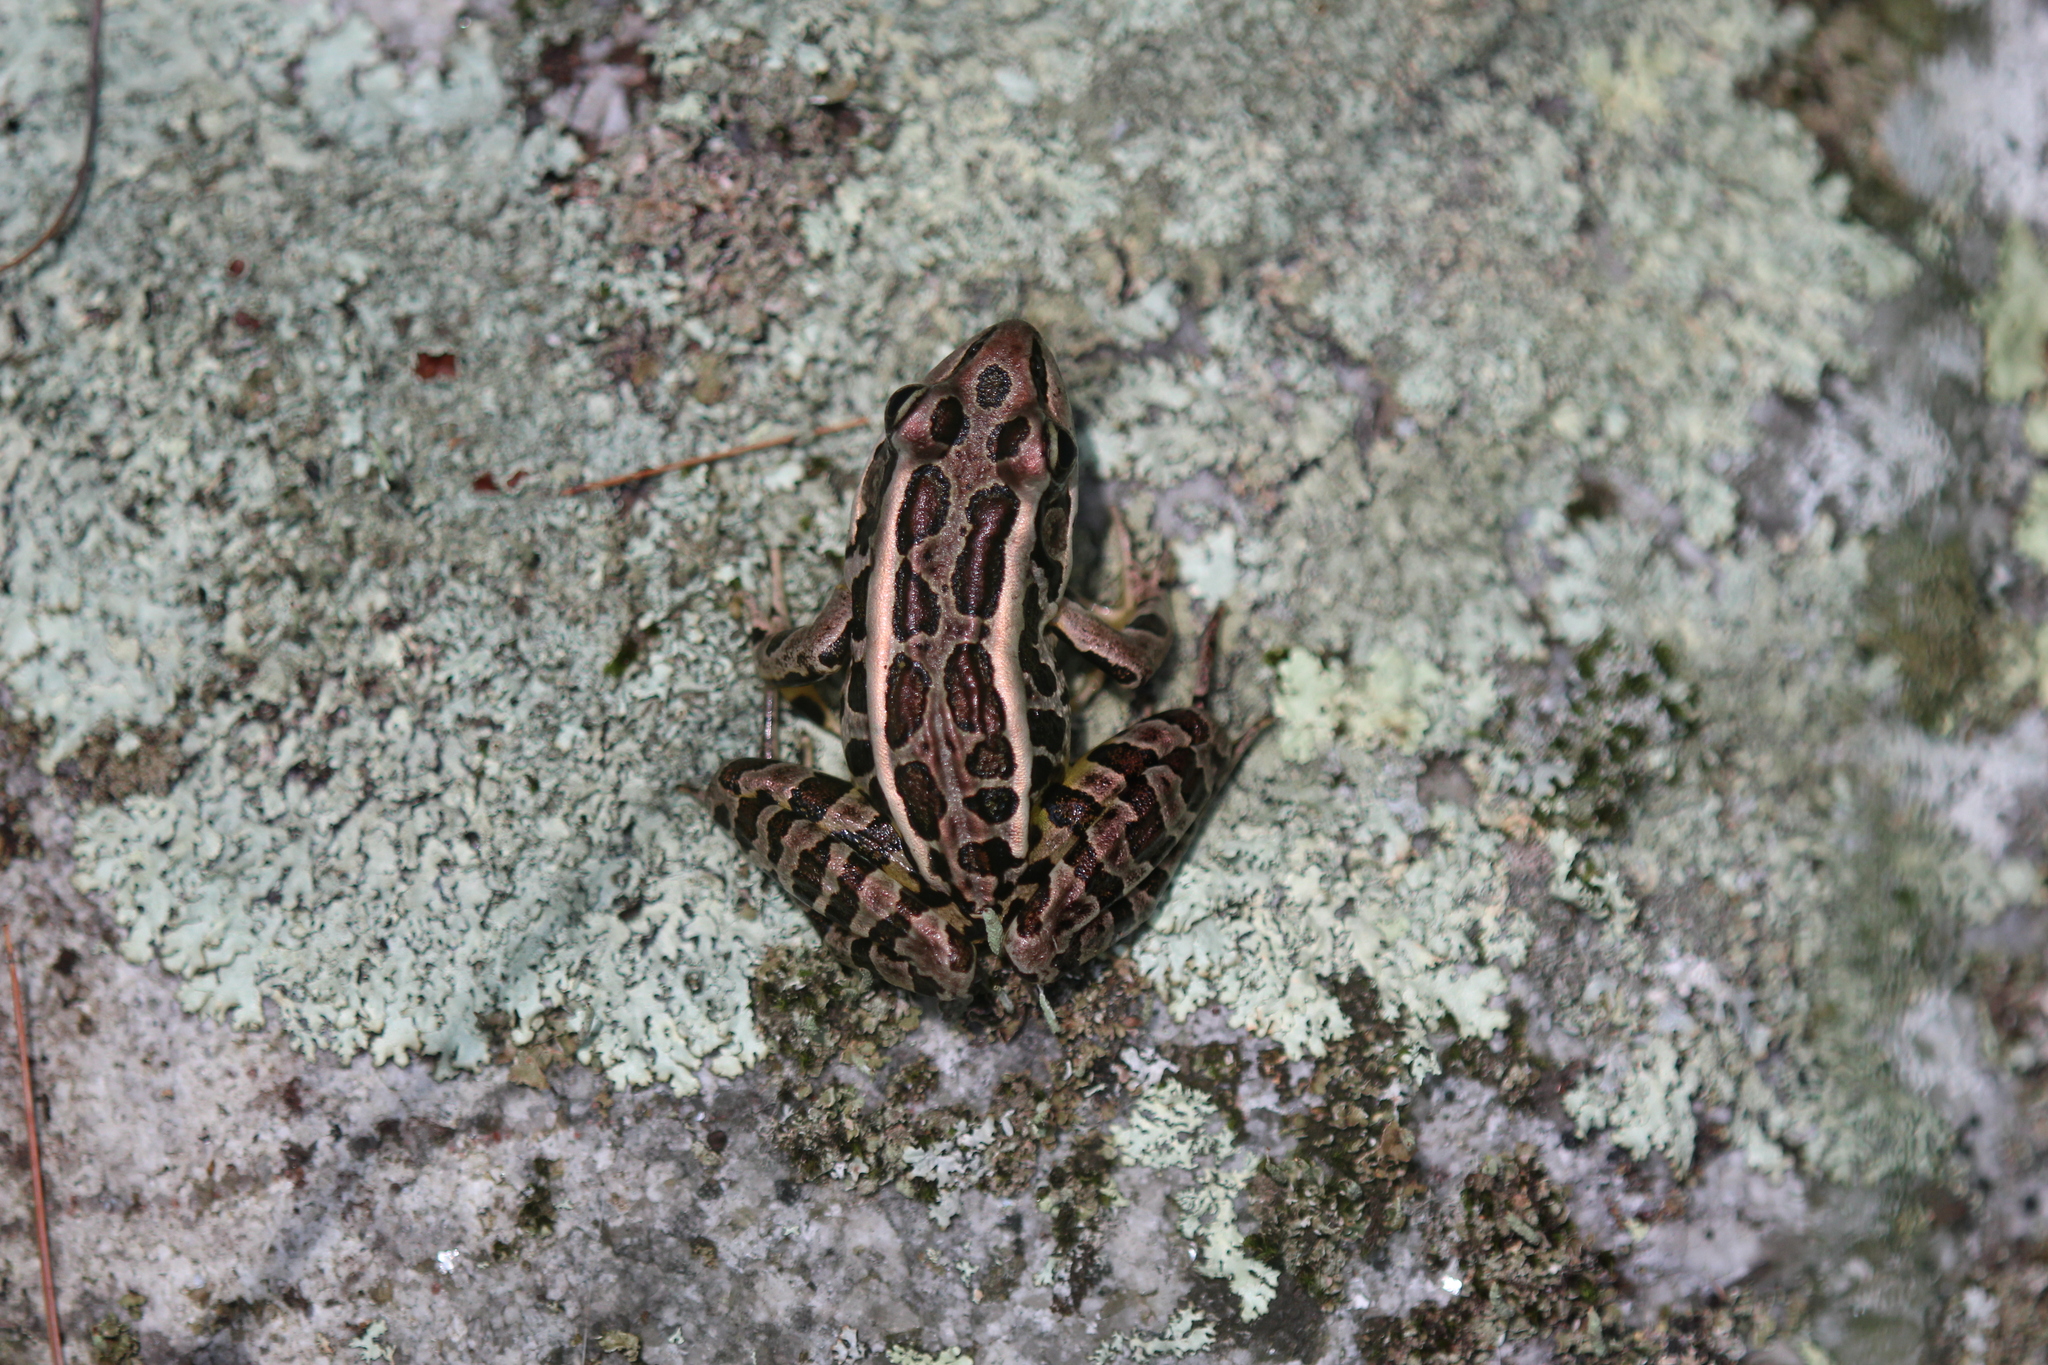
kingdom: Animalia
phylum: Chordata
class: Amphibia
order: Anura
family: Ranidae
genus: Lithobates
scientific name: Lithobates palustris
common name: Pickerel frog
